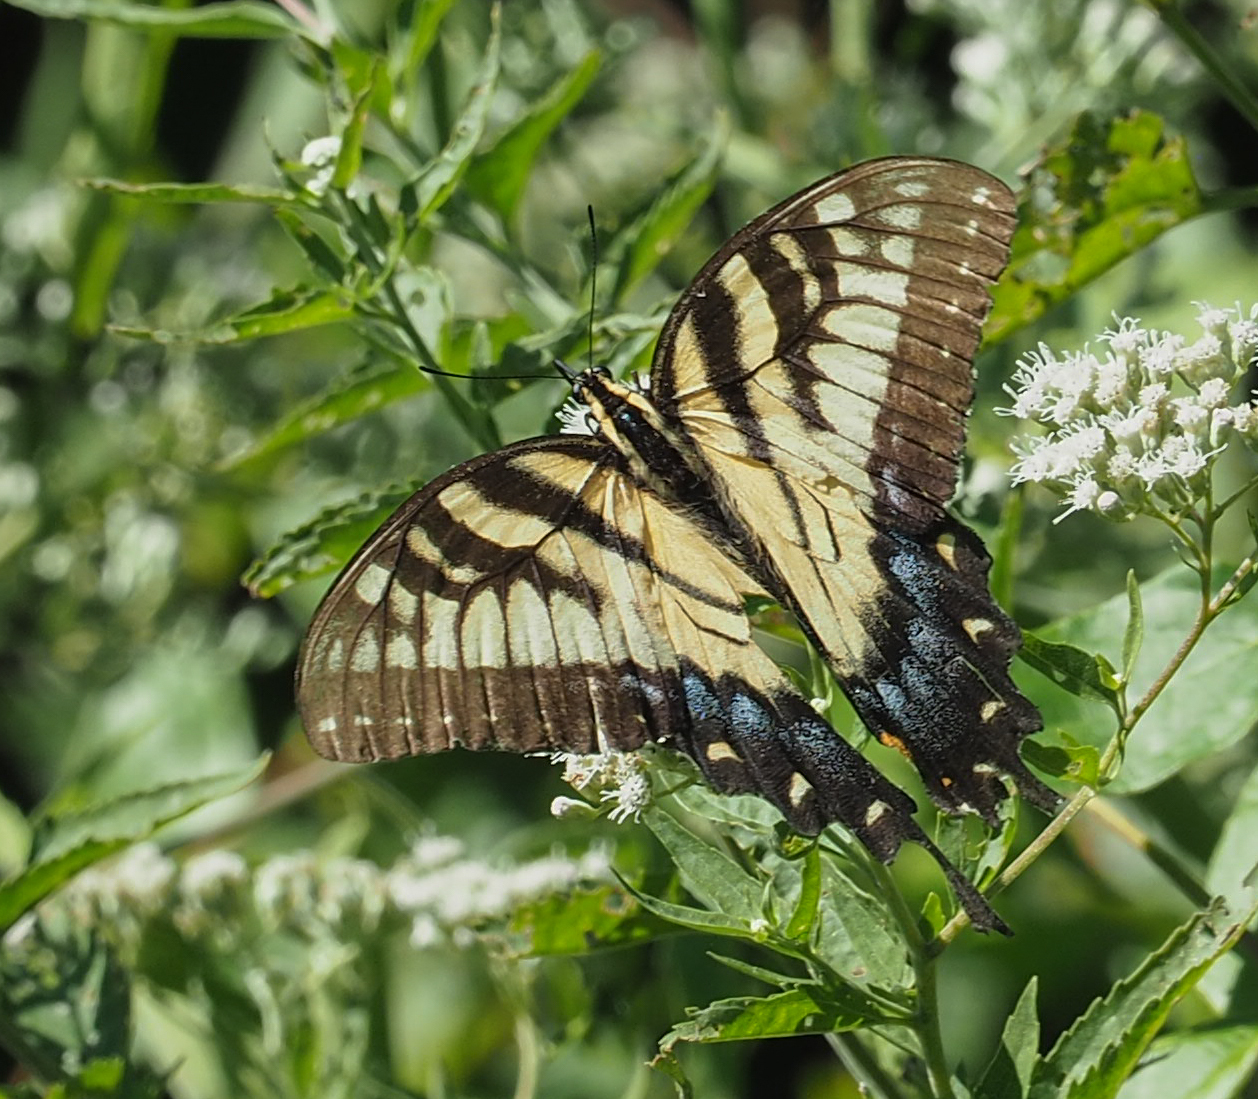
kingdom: Animalia
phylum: Arthropoda
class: Insecta
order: Lepidoptera
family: Papilionidae
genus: Papilio
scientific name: Papilio glaucus
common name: Tiger swallowtail
